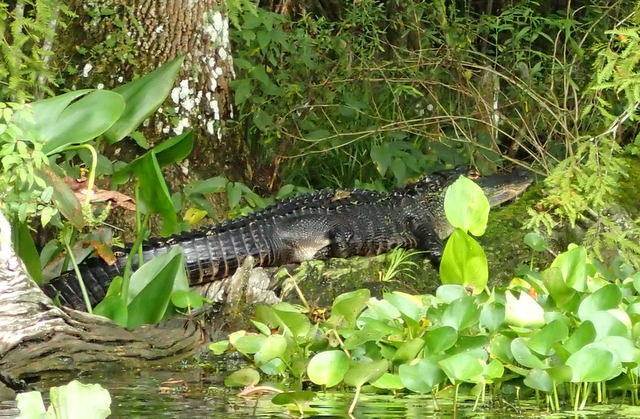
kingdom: Animalia
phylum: Chordata
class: Crocodylia
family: Alligatoridae
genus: Alligator
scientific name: Alligator mississippiensis
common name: American alligator
